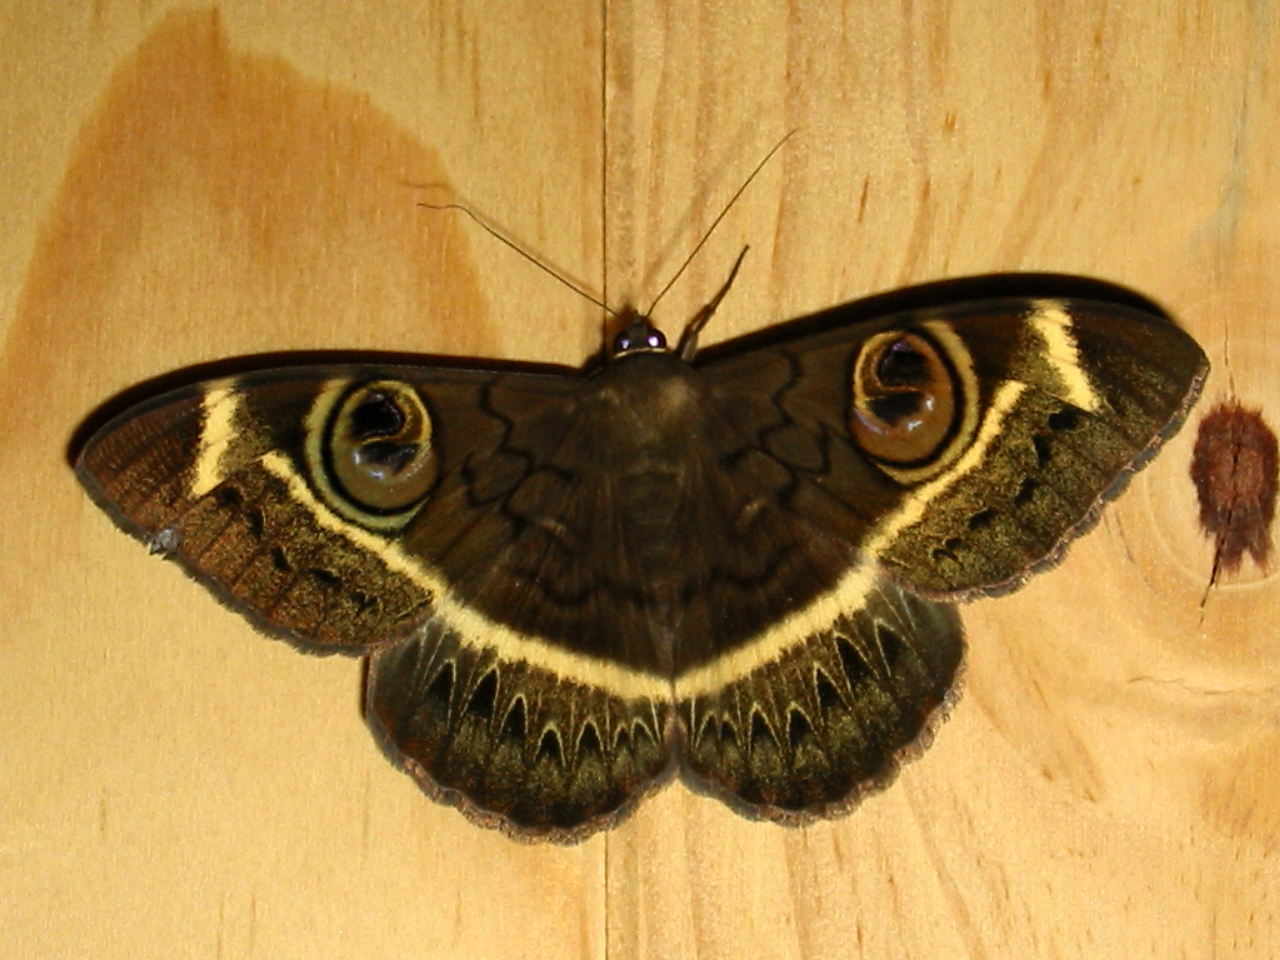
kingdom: Animalia
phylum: Arthropoda
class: Insecta
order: Lepidoptera
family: Erebidae
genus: Cyligramma
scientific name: Cyligramma latona
